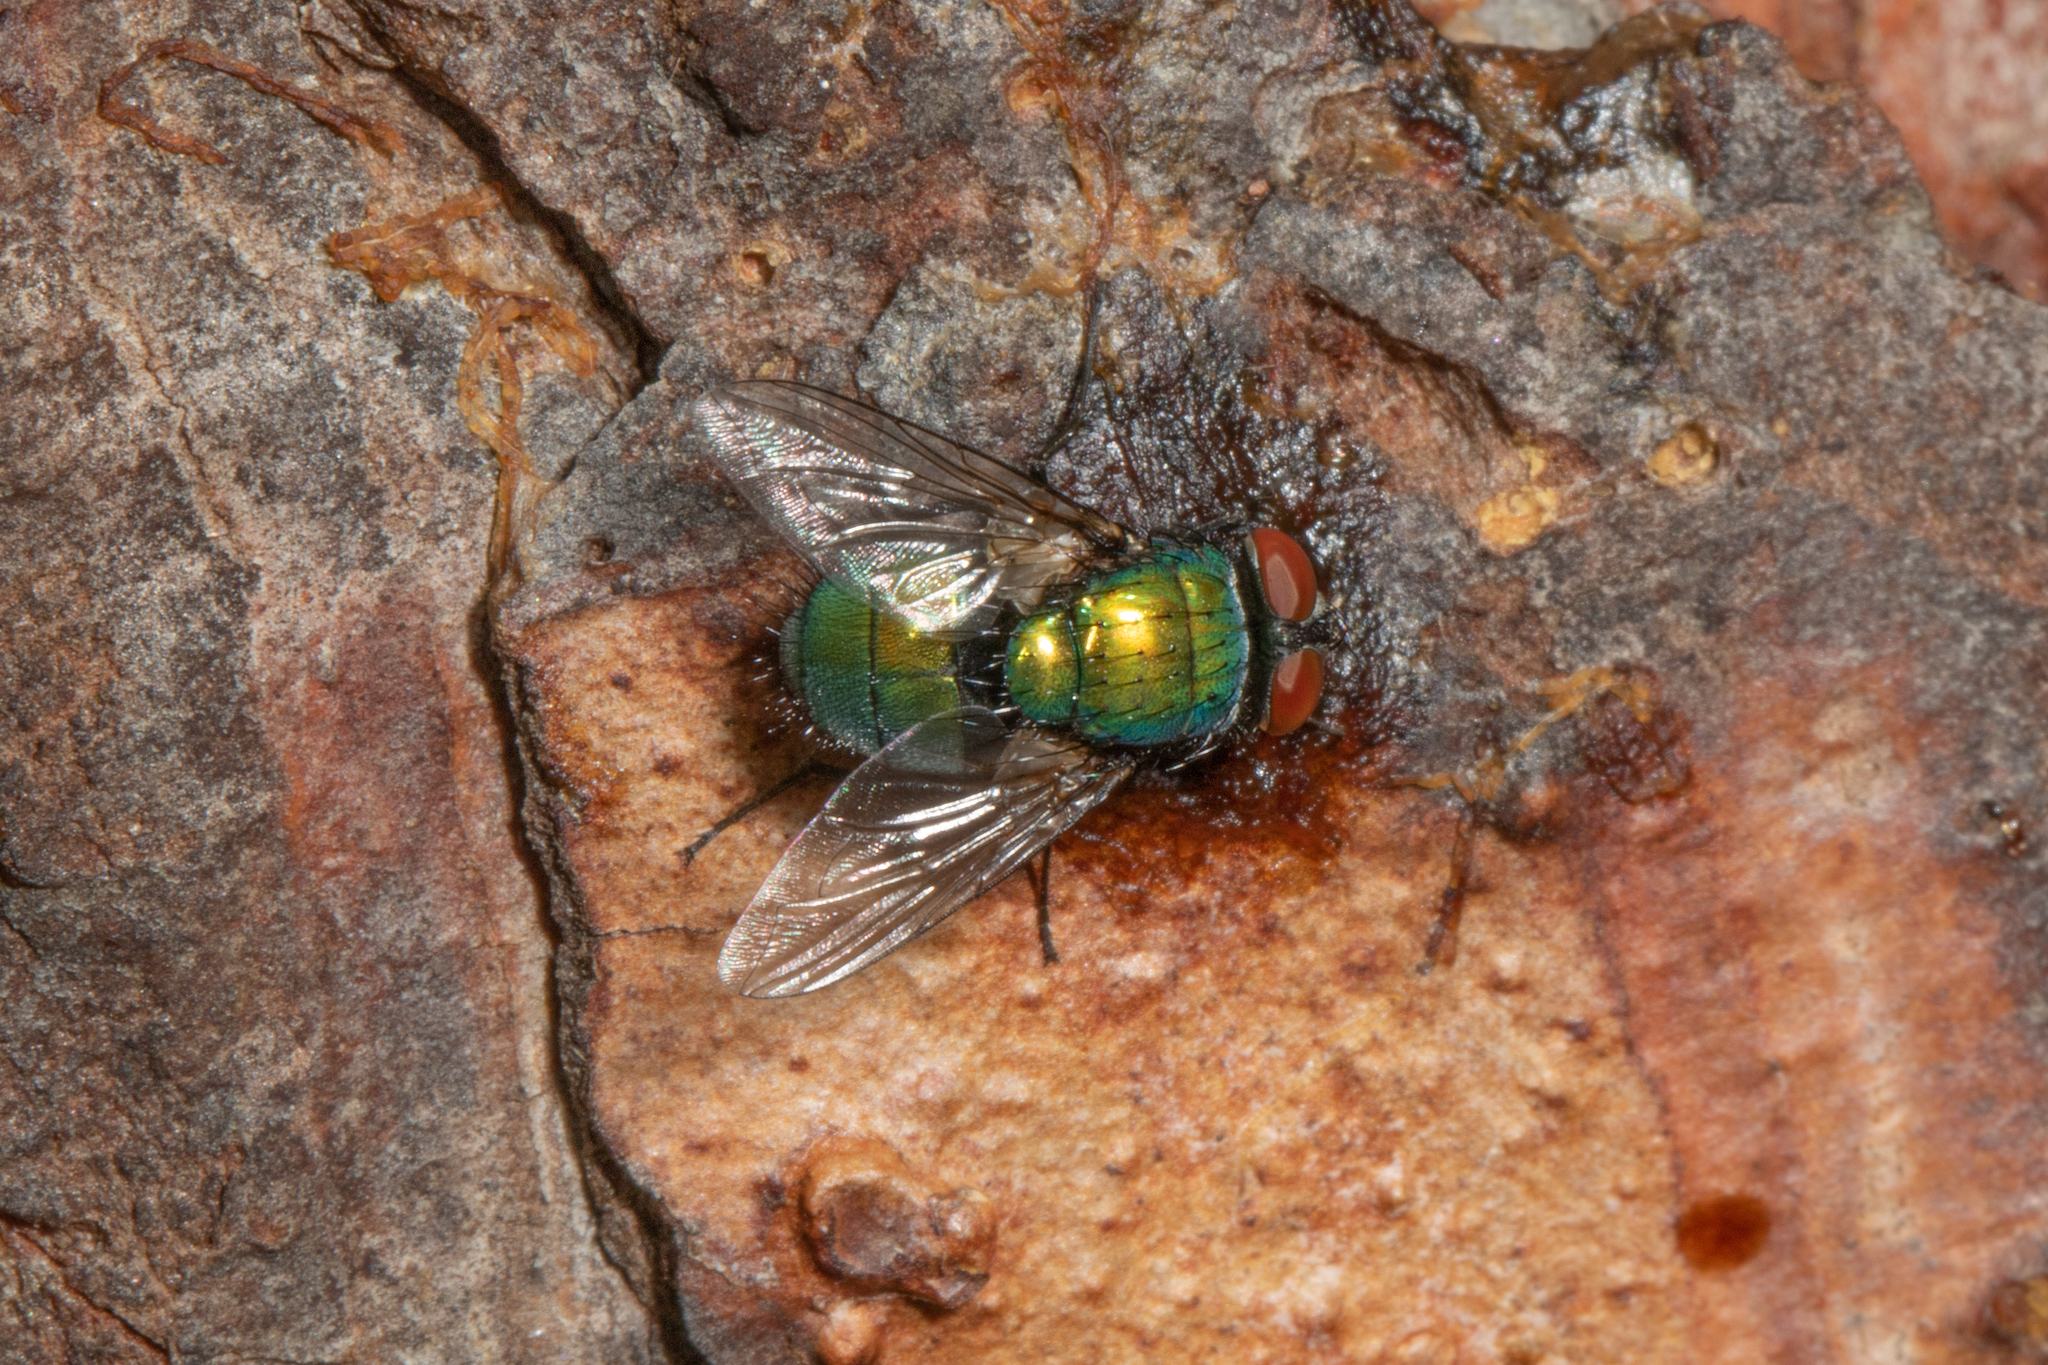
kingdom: Animalia
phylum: Arthropoda
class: Insecta
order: Diptera
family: Calliphoridae
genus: Lucilia
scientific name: Lucilia sericata
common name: Blow fly
